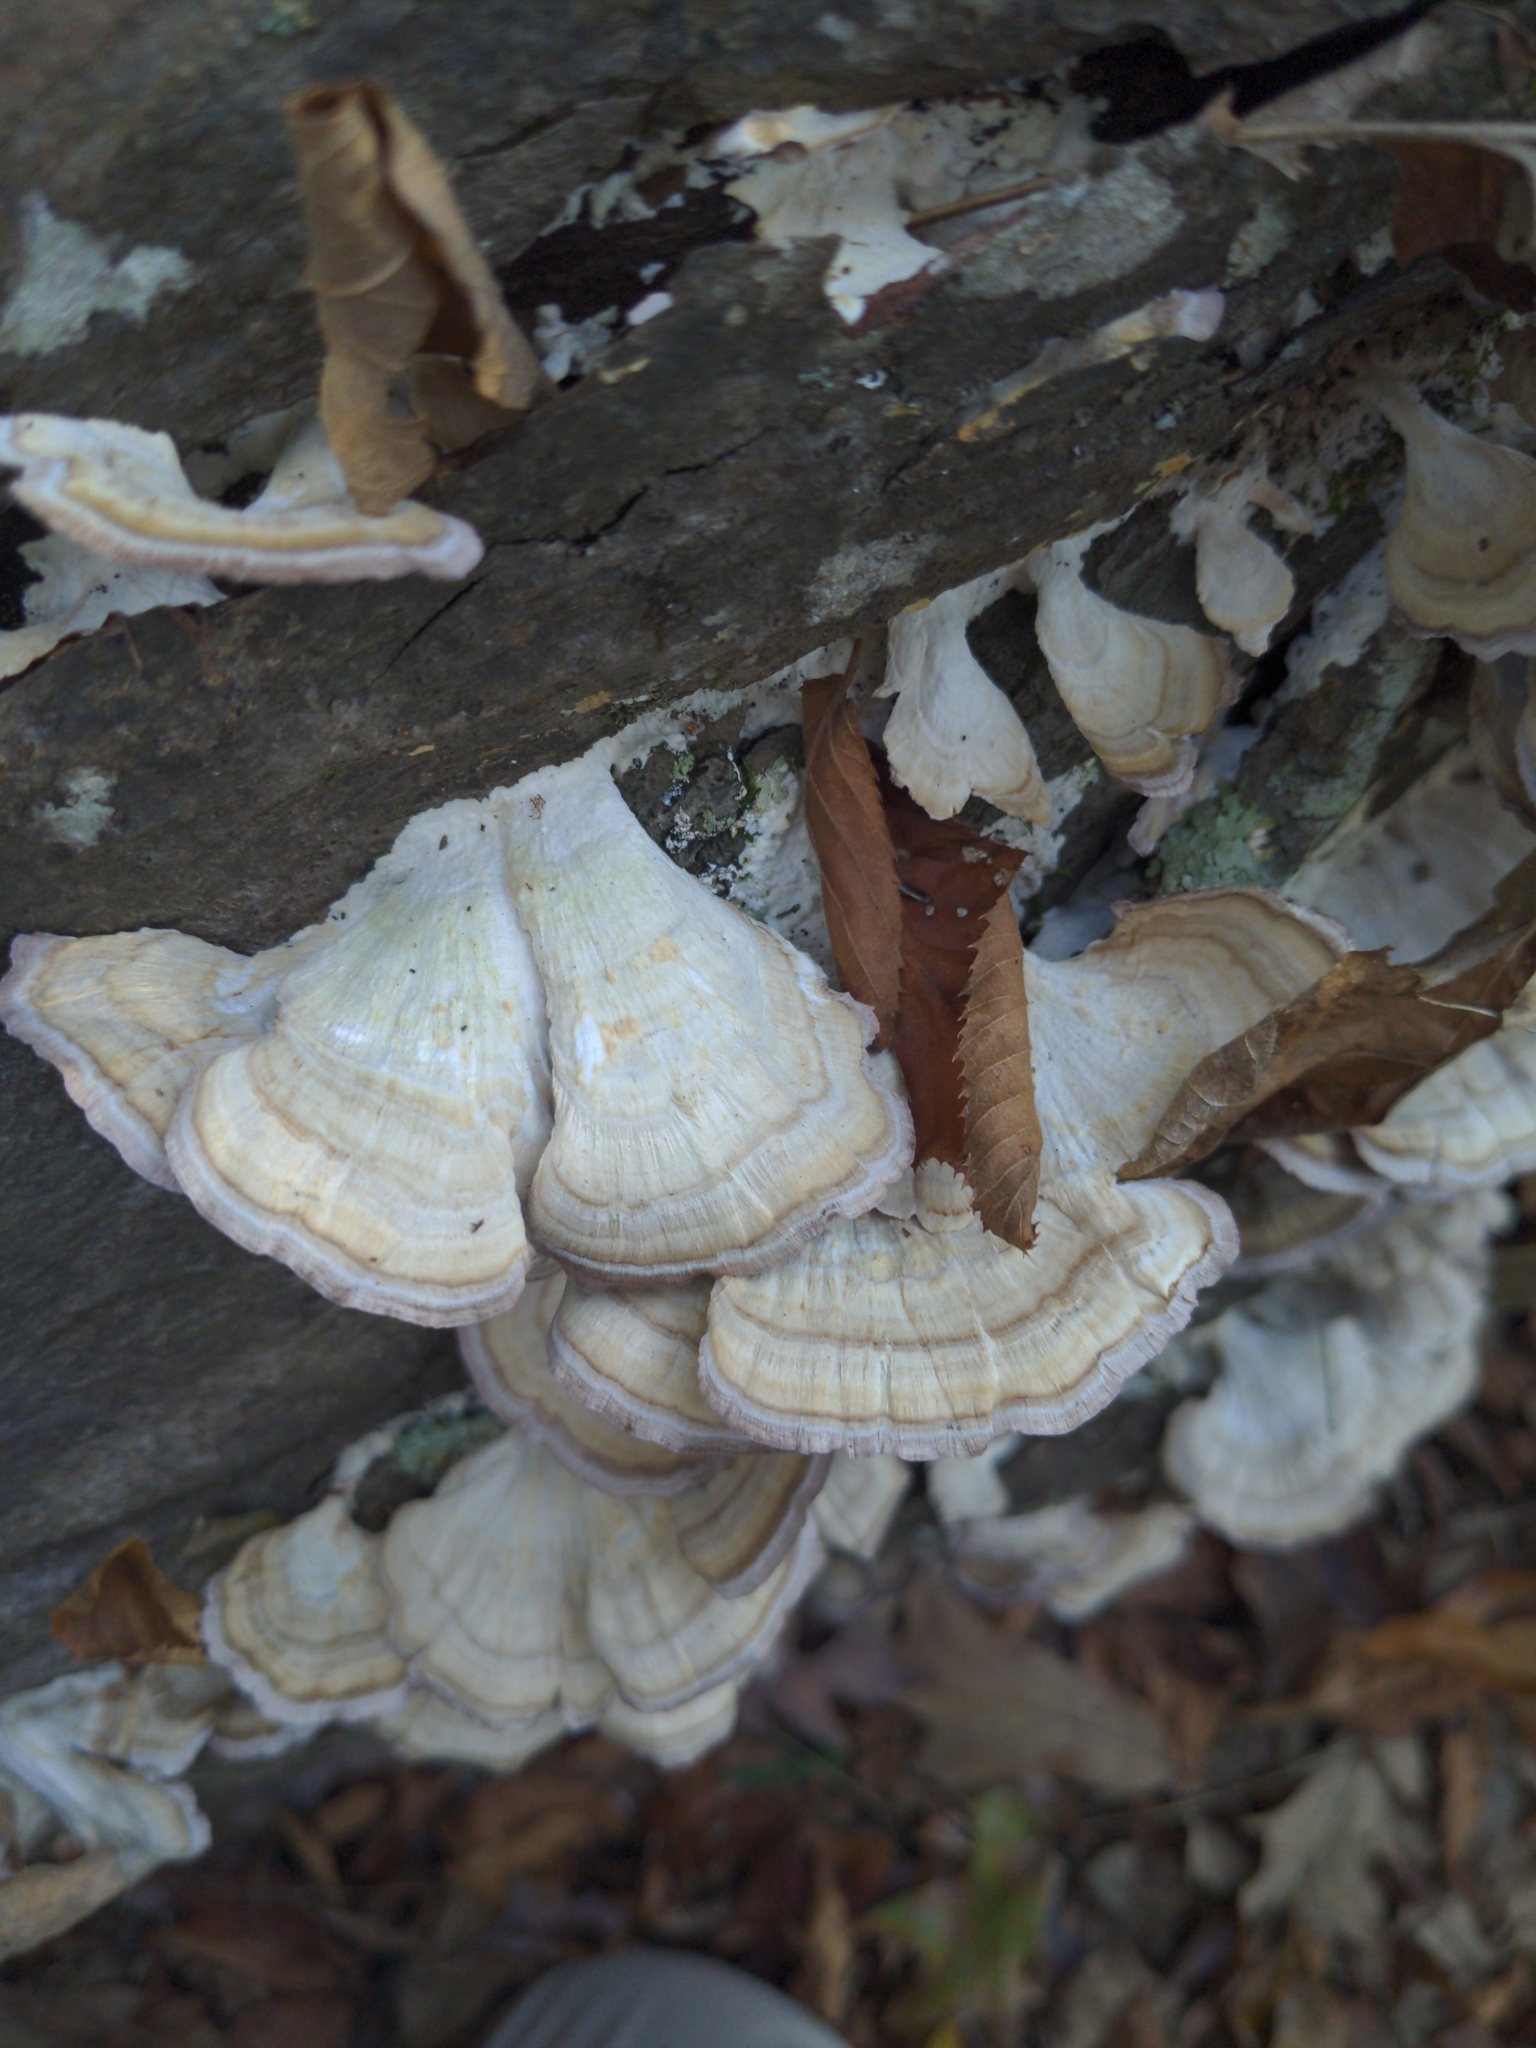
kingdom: Fungi
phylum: Basidiomycota
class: Agaricomycetes
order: Hymenochaetales
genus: Trichaptum
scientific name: Trichaptum biforme
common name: Violet-toothed polypore
